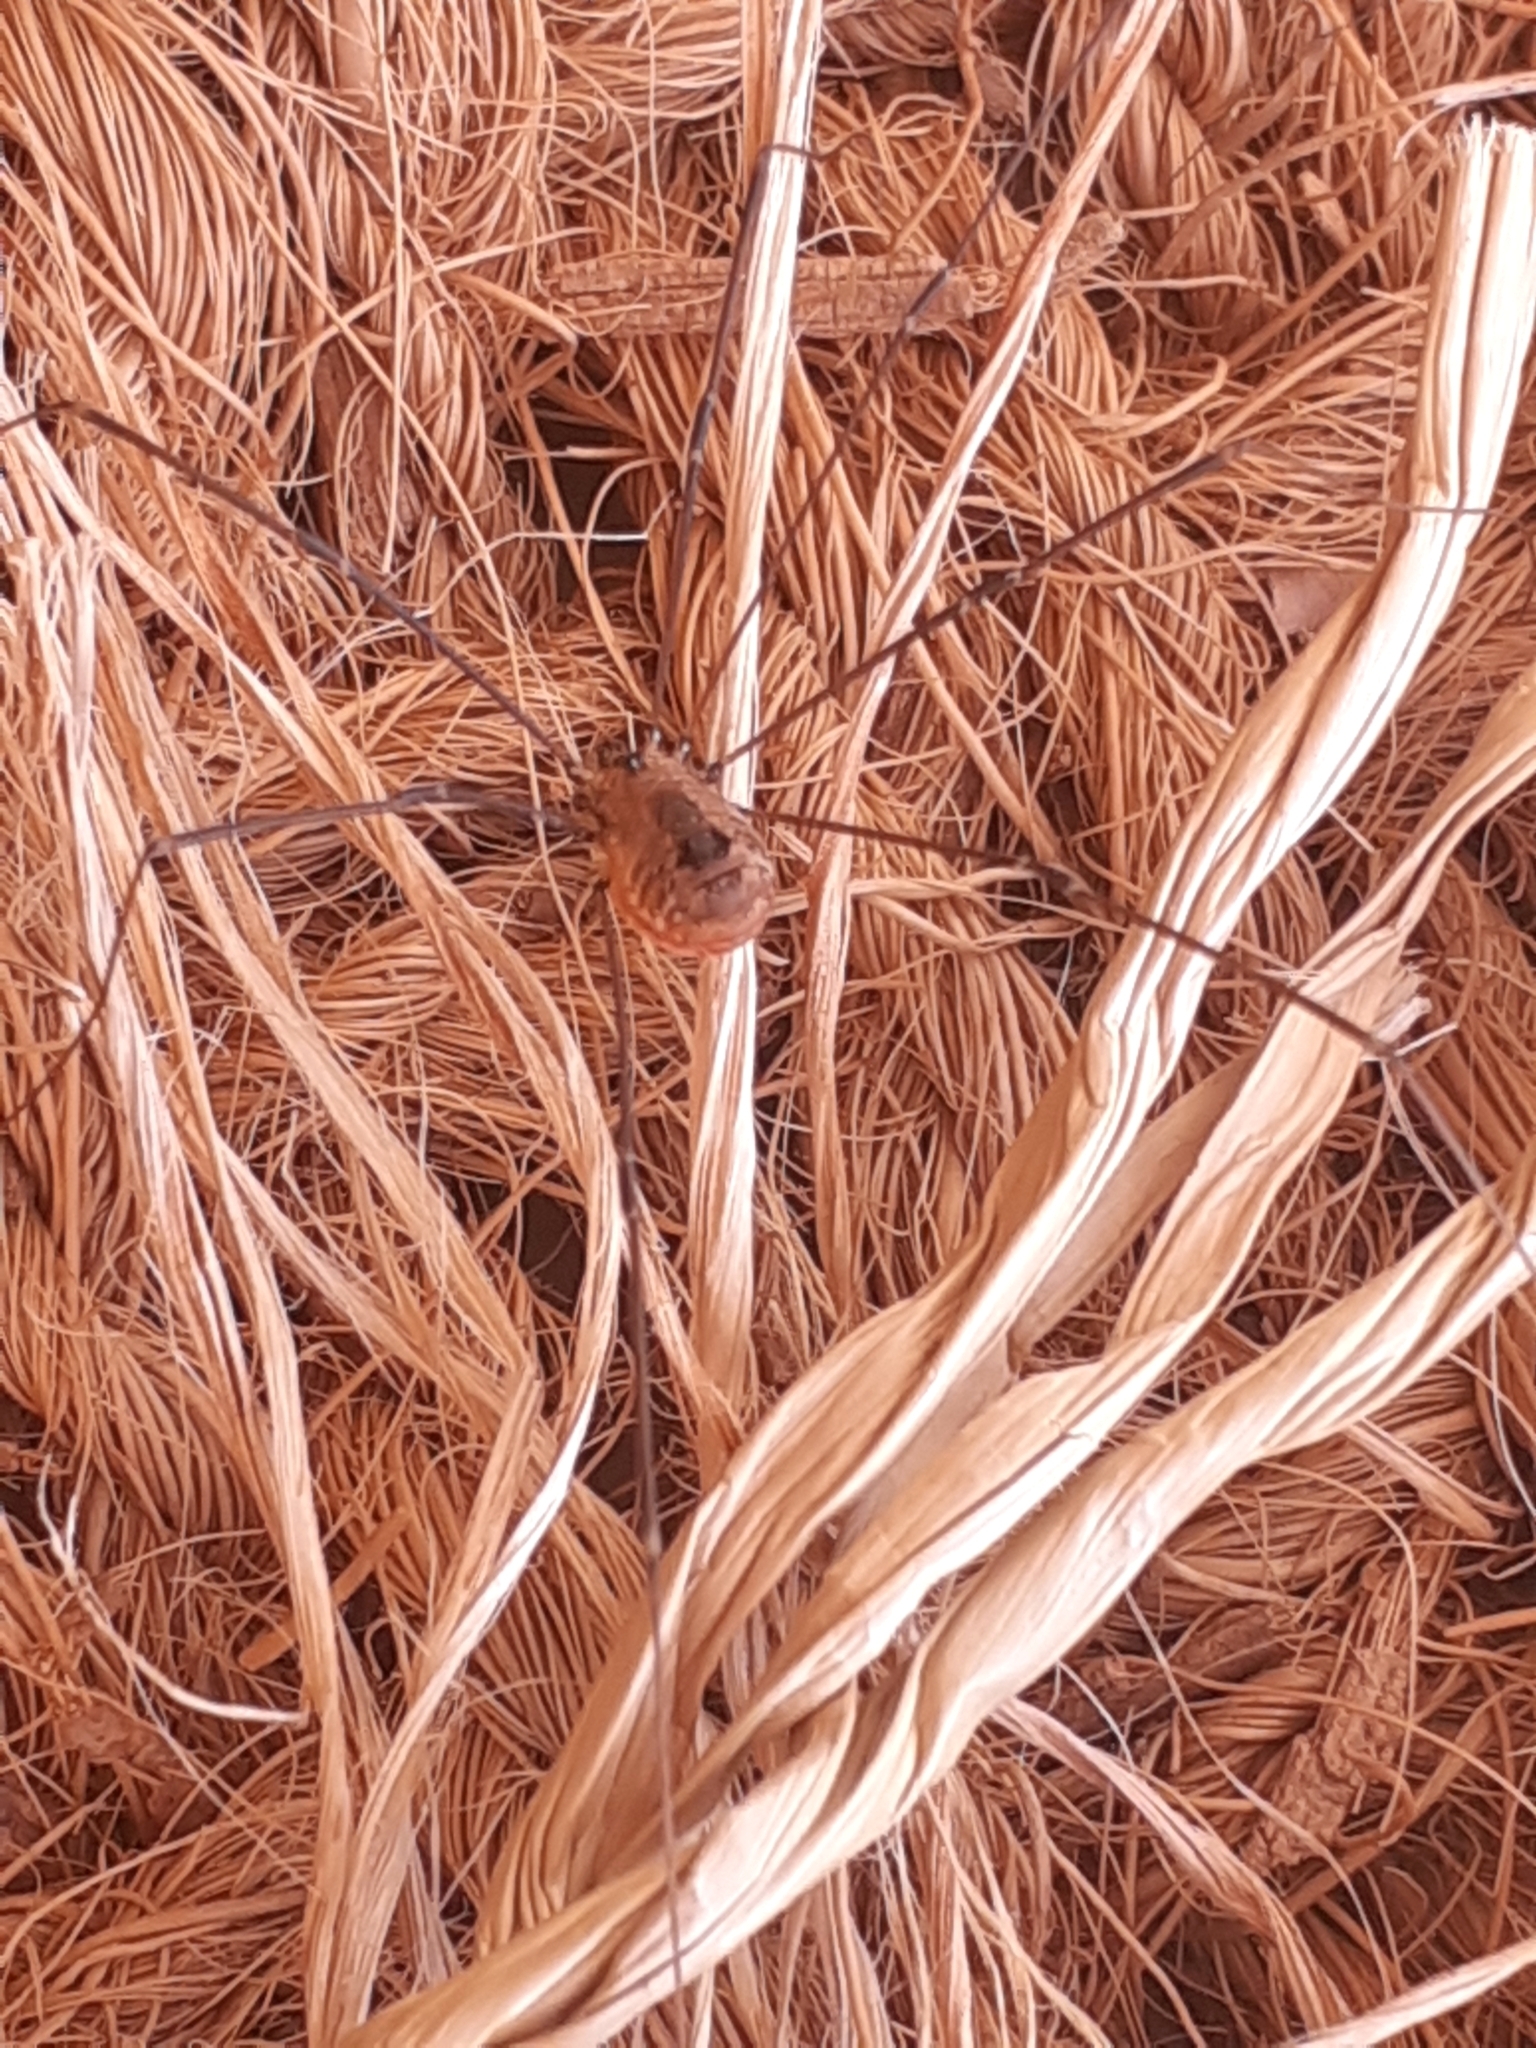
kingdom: Animalia
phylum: Arthropoda
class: Arachnida
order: Opiliones
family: Sclerosomatidae
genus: Leiobunum
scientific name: Leiobunum rotundum
